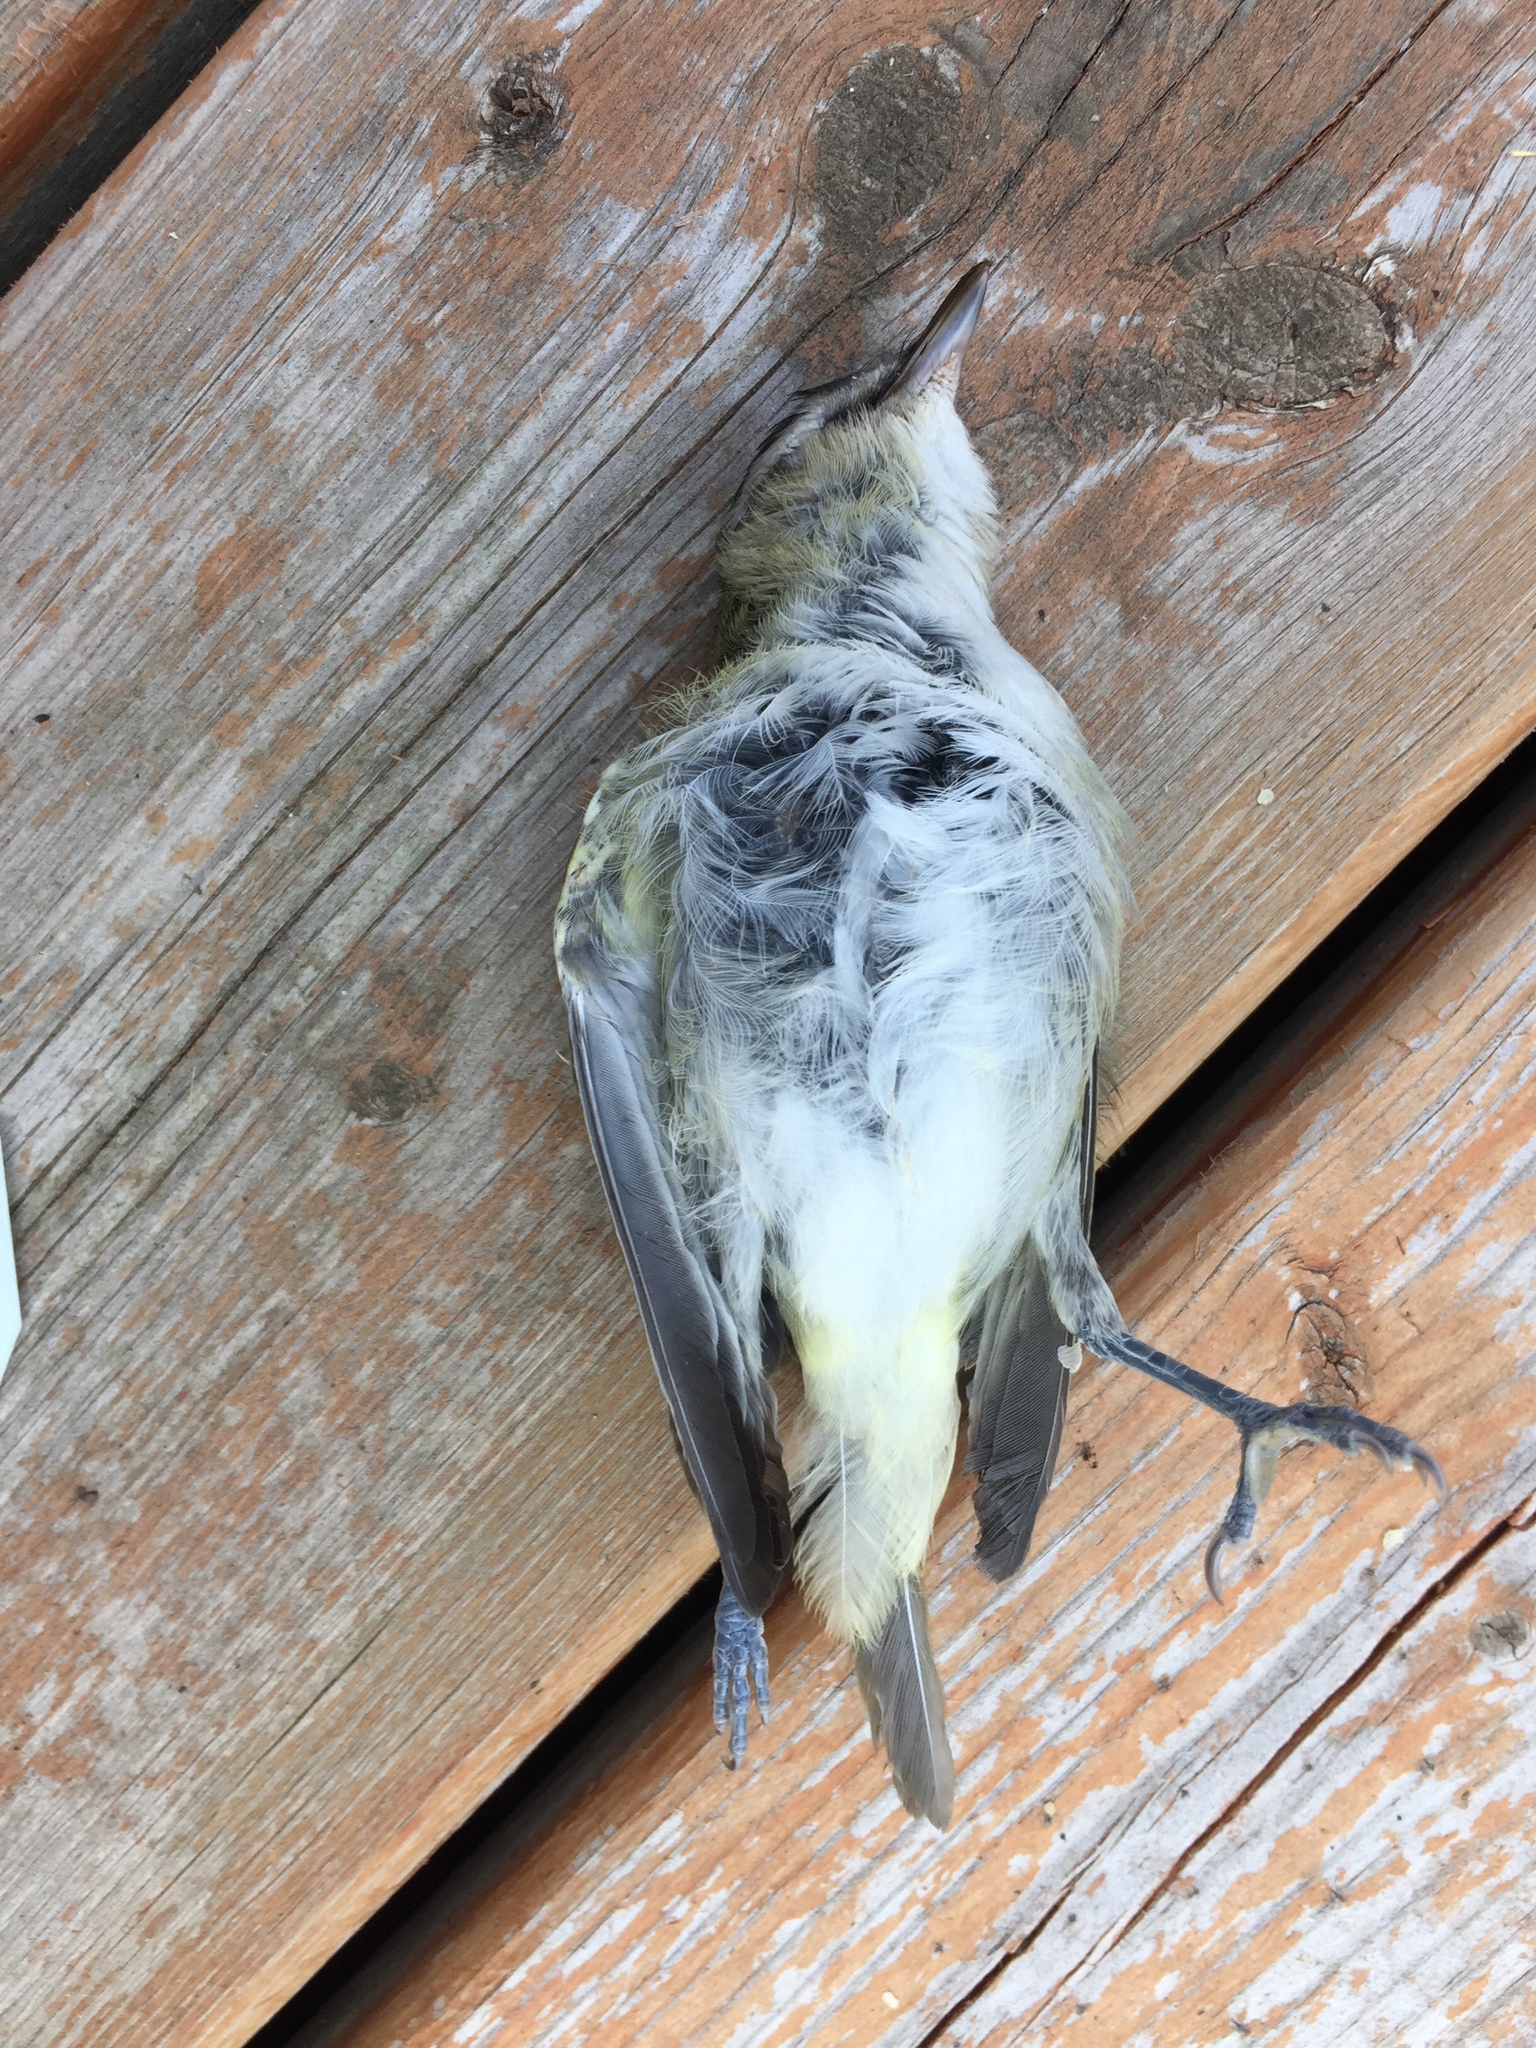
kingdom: Animalia
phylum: Chordata
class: Aves
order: Passeriformes
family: Vireonidae
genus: Vireo
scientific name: Vireo olivaceus
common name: Red-eyed vireo
